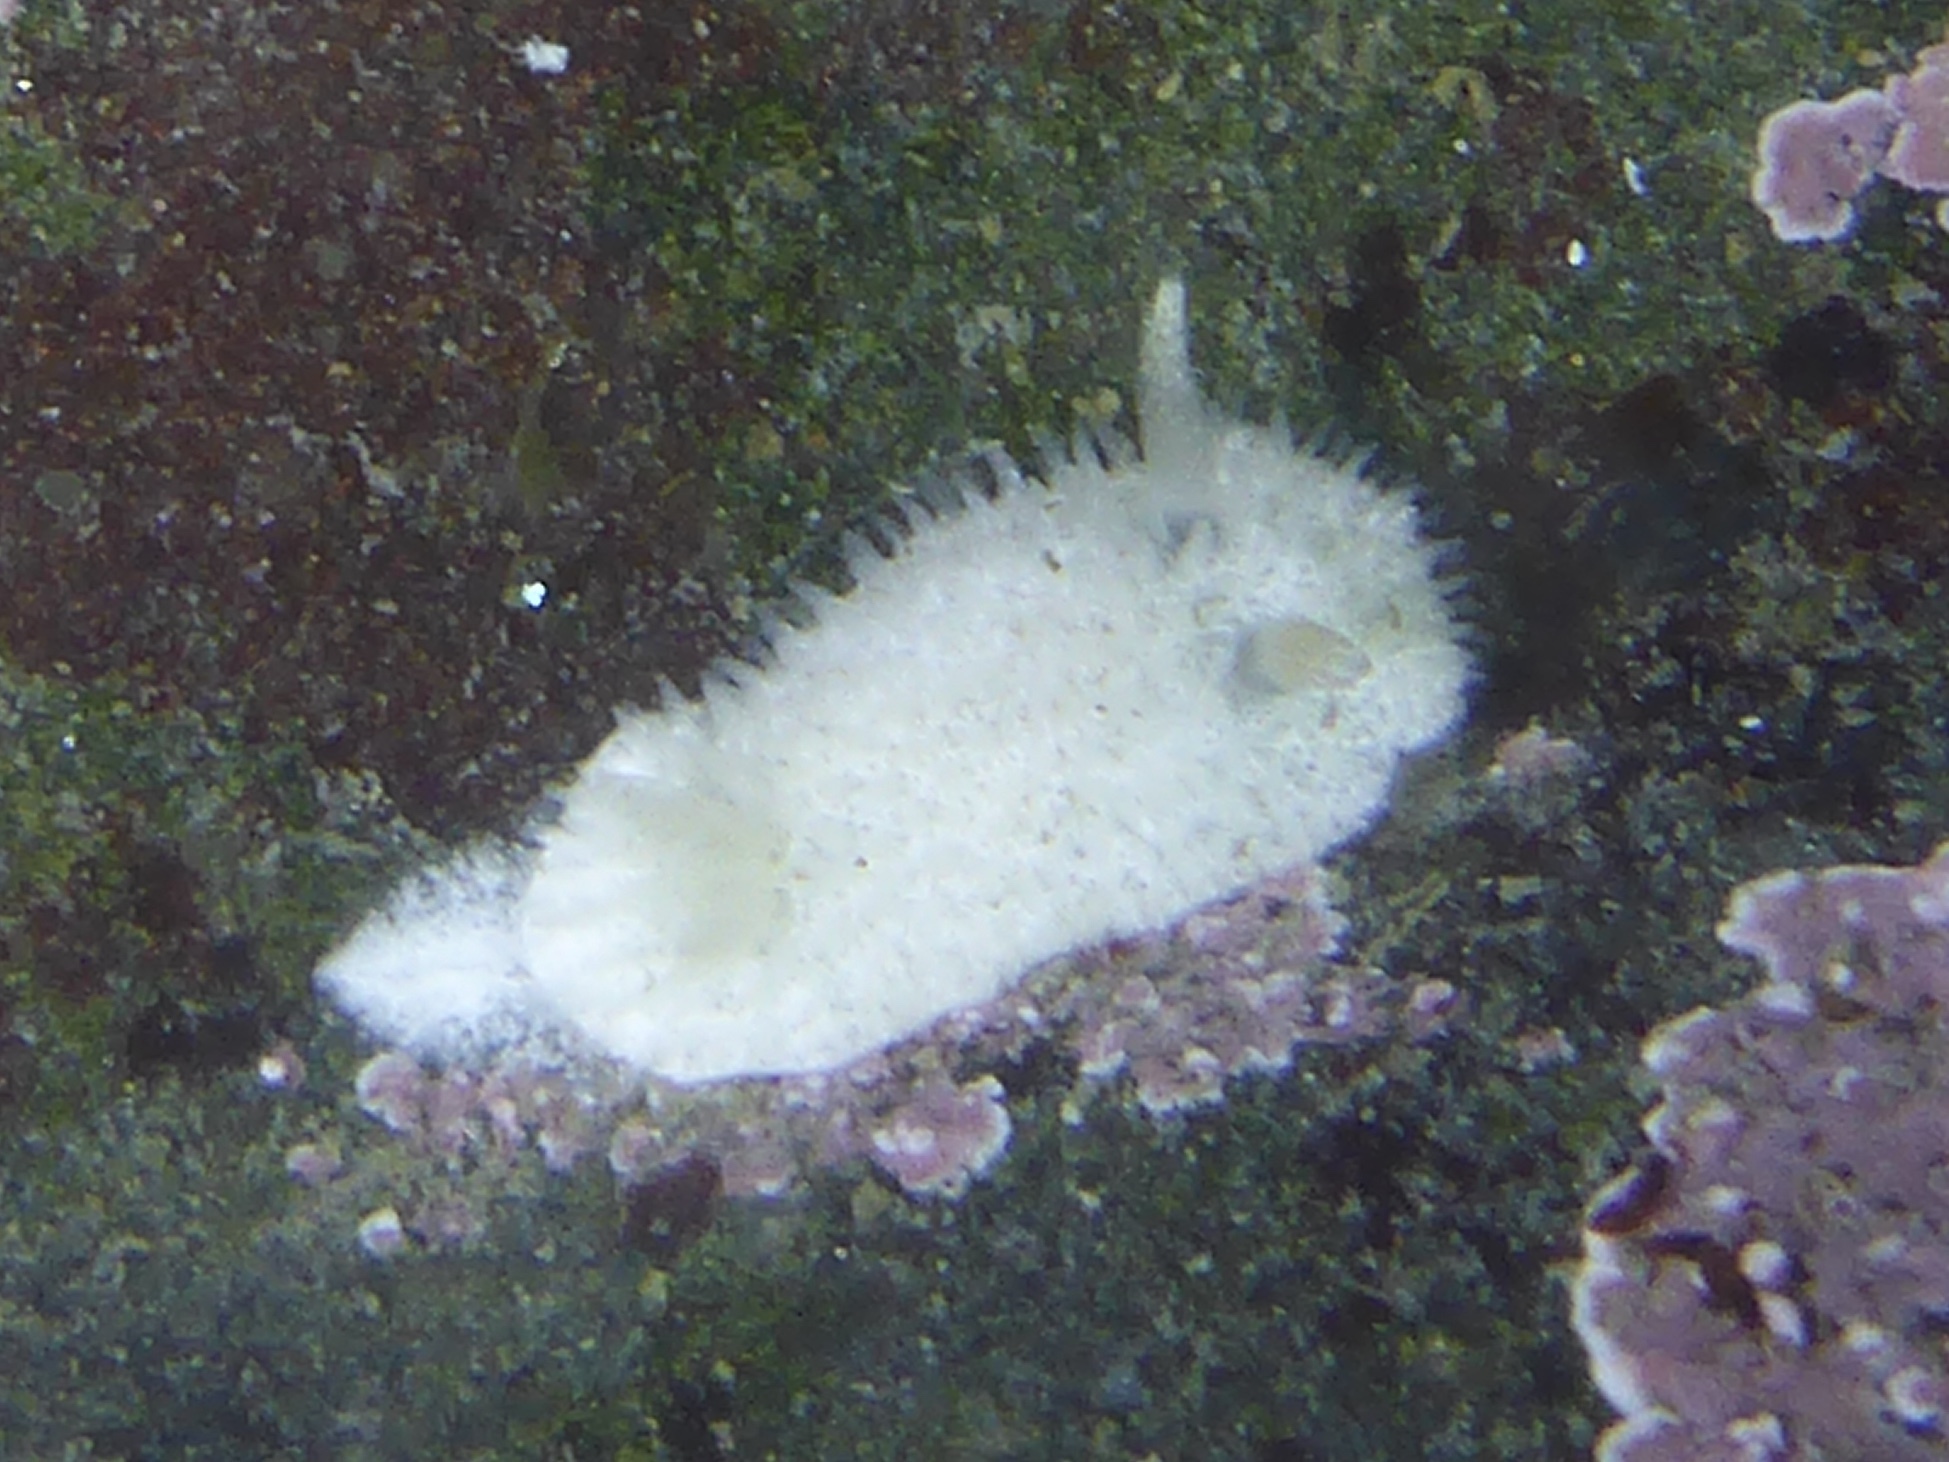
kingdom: Animalia
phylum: Mollusca
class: Gastropoda
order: Nudibranchia
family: Calycidorididae
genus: Diaphorodoris
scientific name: Diaphorodoris lirulatocauda
